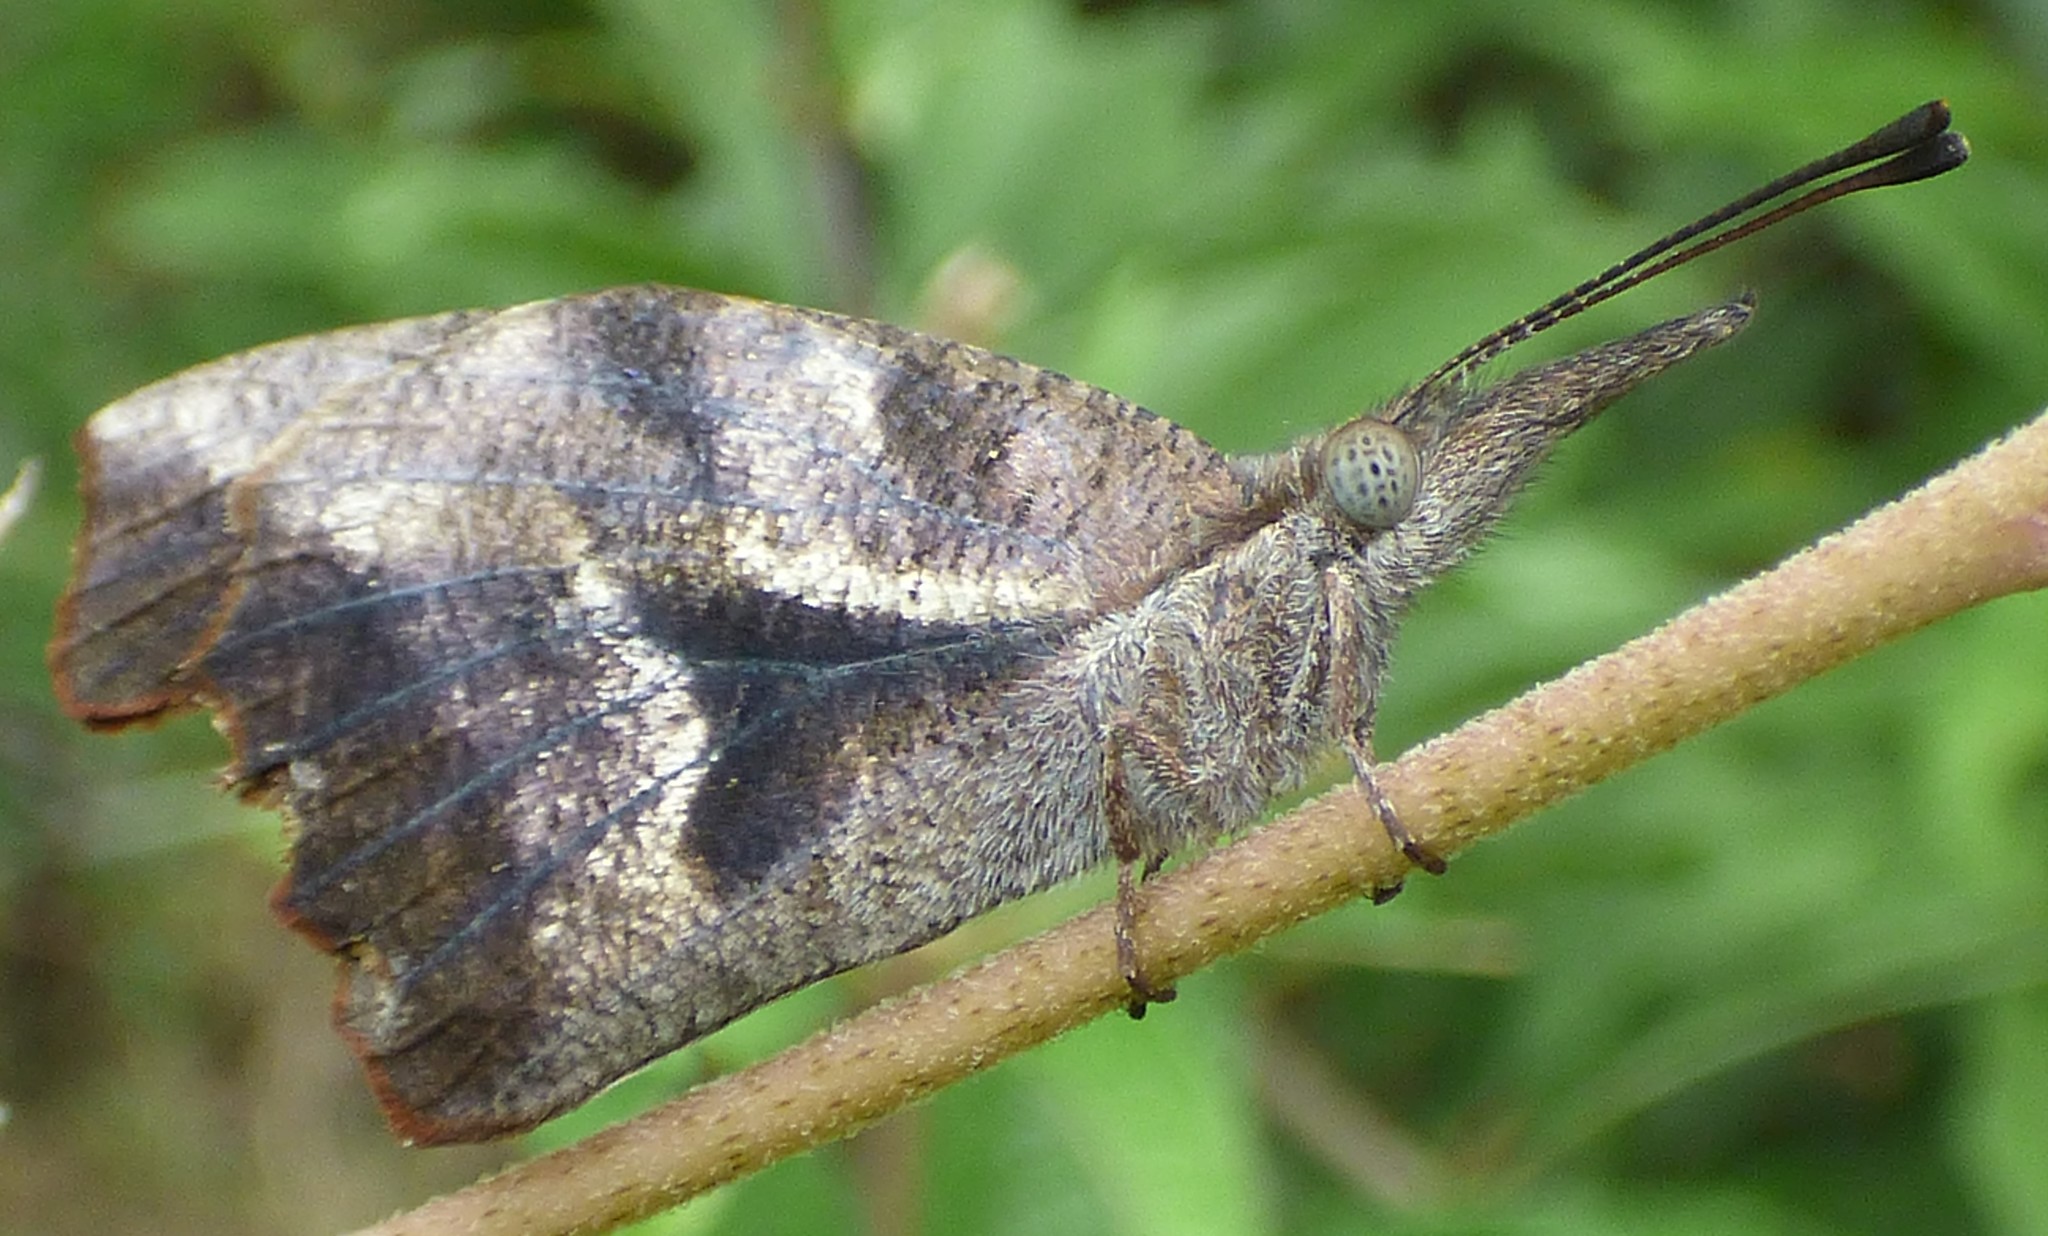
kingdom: Animalia
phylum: Arthropoda
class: Insecta
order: Lepidoptera
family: Nymphalidae
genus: Libytheana
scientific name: Libytheana carinenta
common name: American snout
